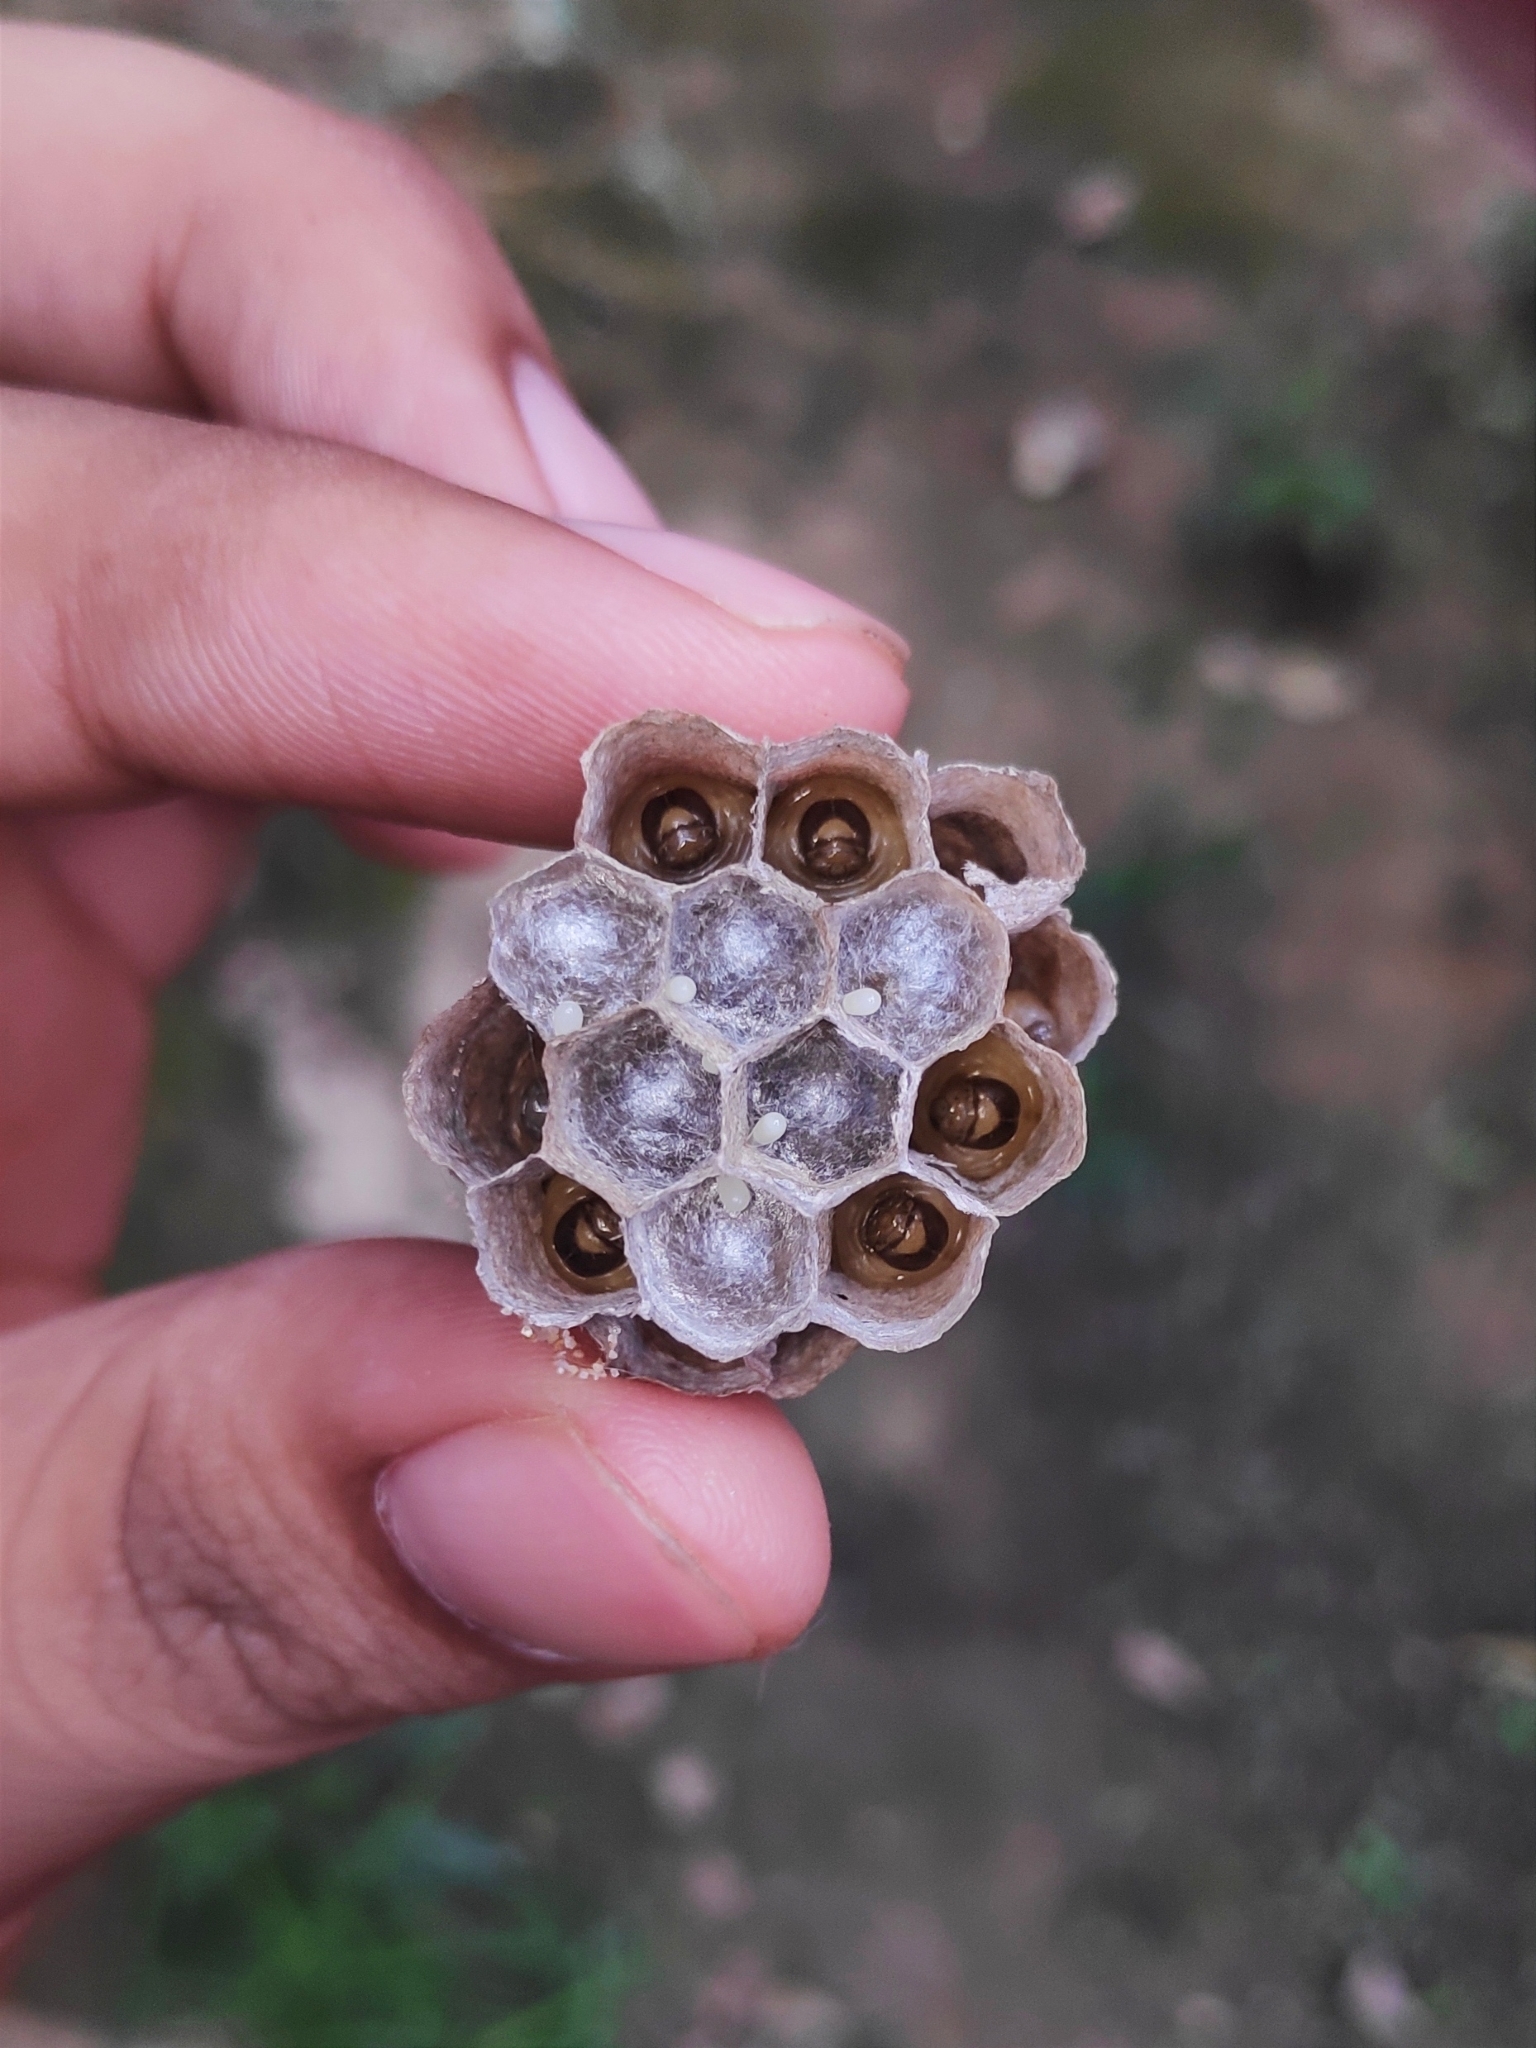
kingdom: Animalia
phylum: Arthropoda
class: Insecta
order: Hymenoptera
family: Eumenidae
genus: Polistes
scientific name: Polistes
